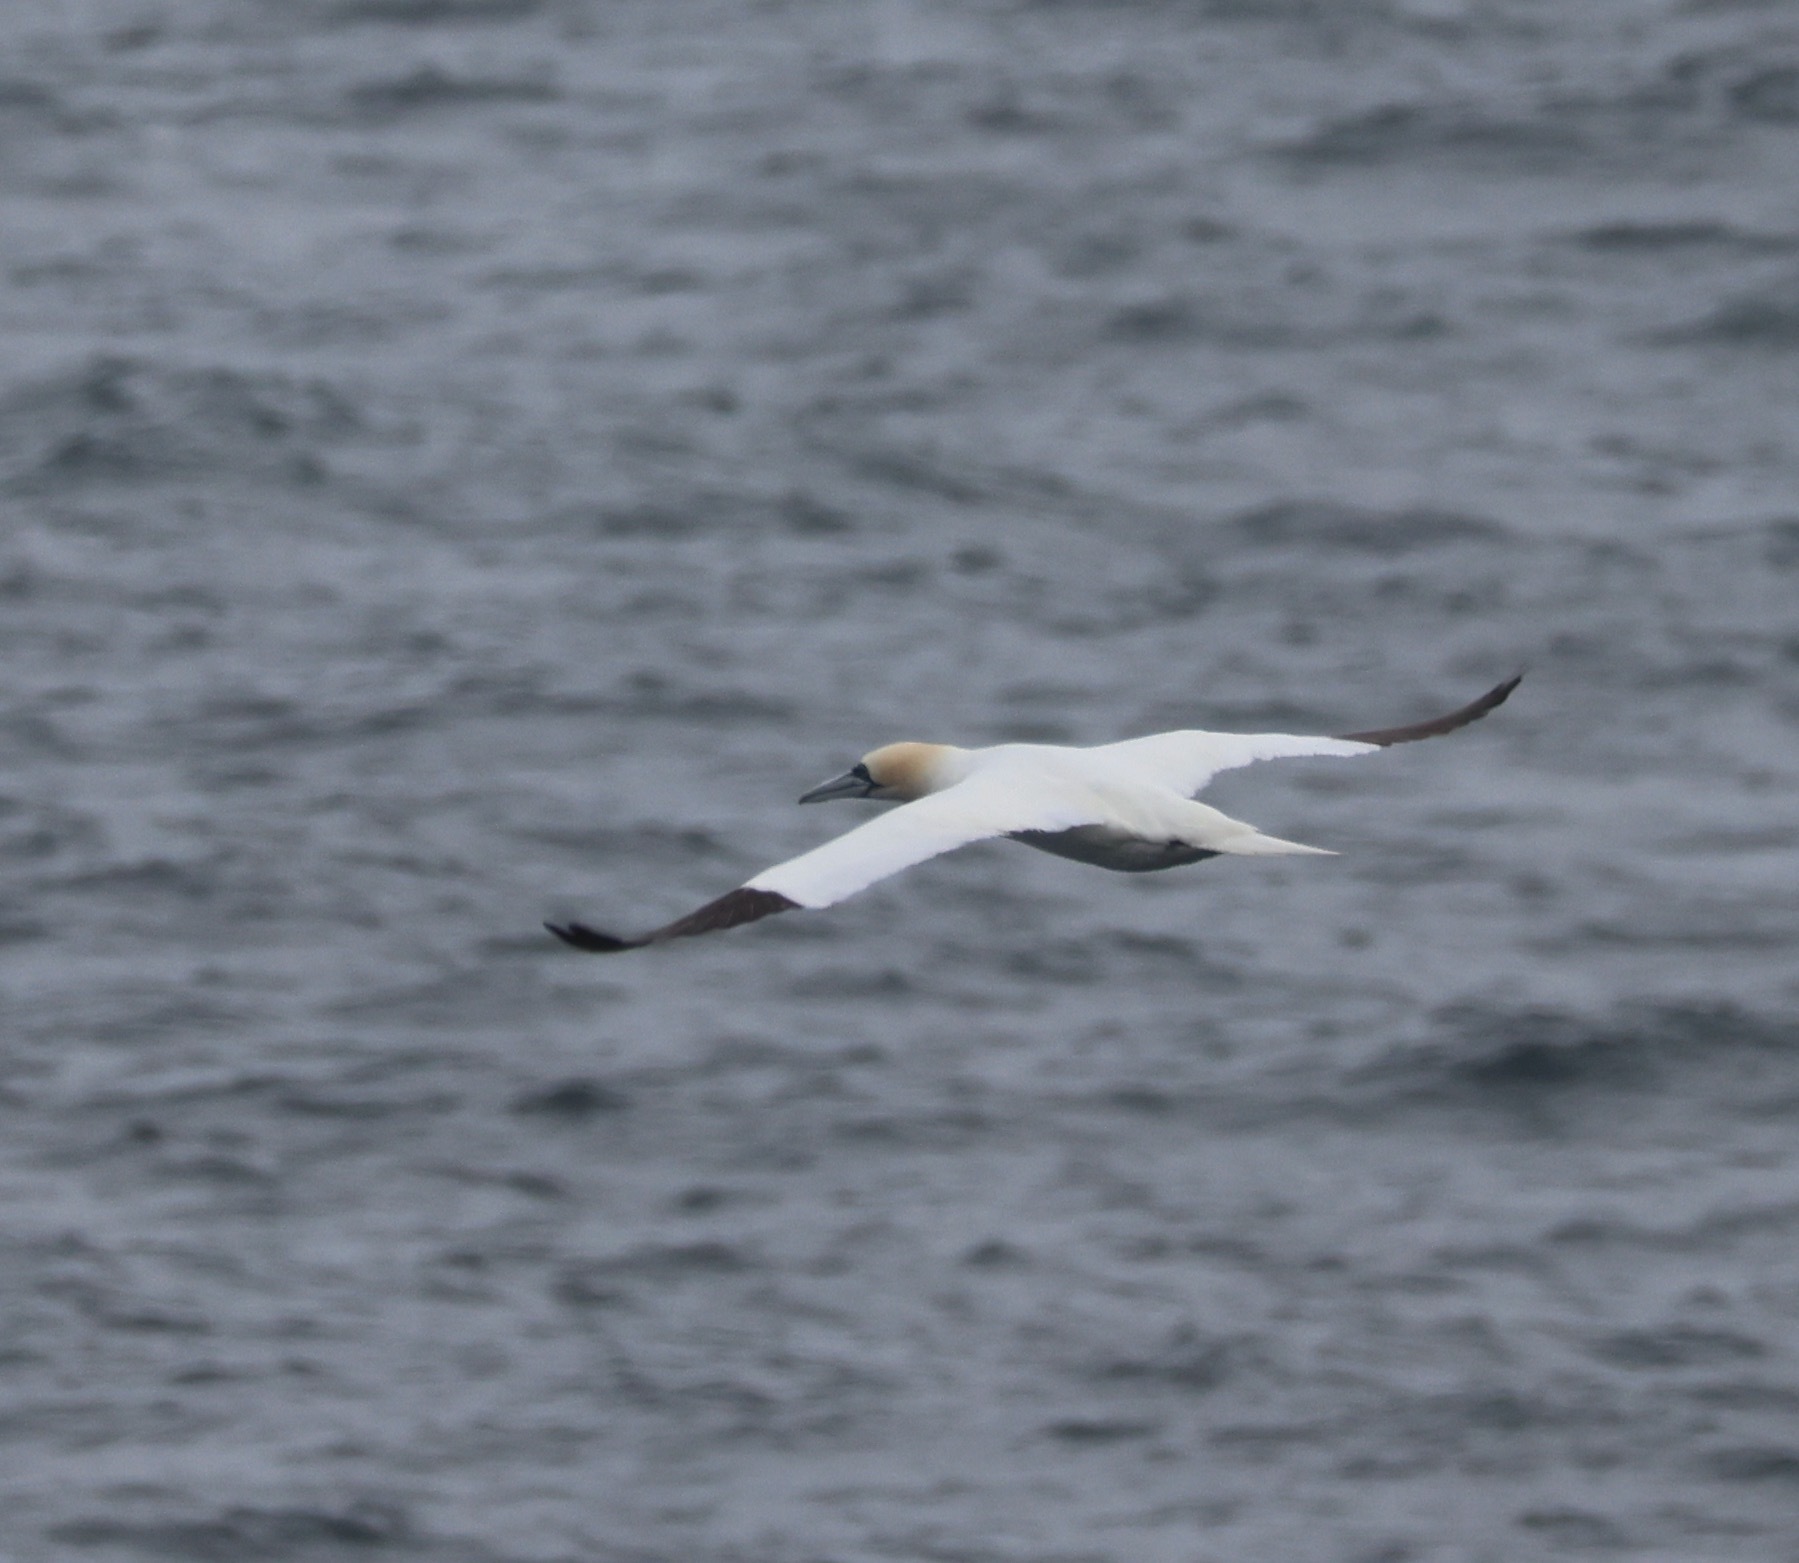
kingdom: Animalia
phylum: Chordata
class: Aves
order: Suliformes
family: Sulidae
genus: Morus
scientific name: Morus bassanus
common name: Northern gannet
